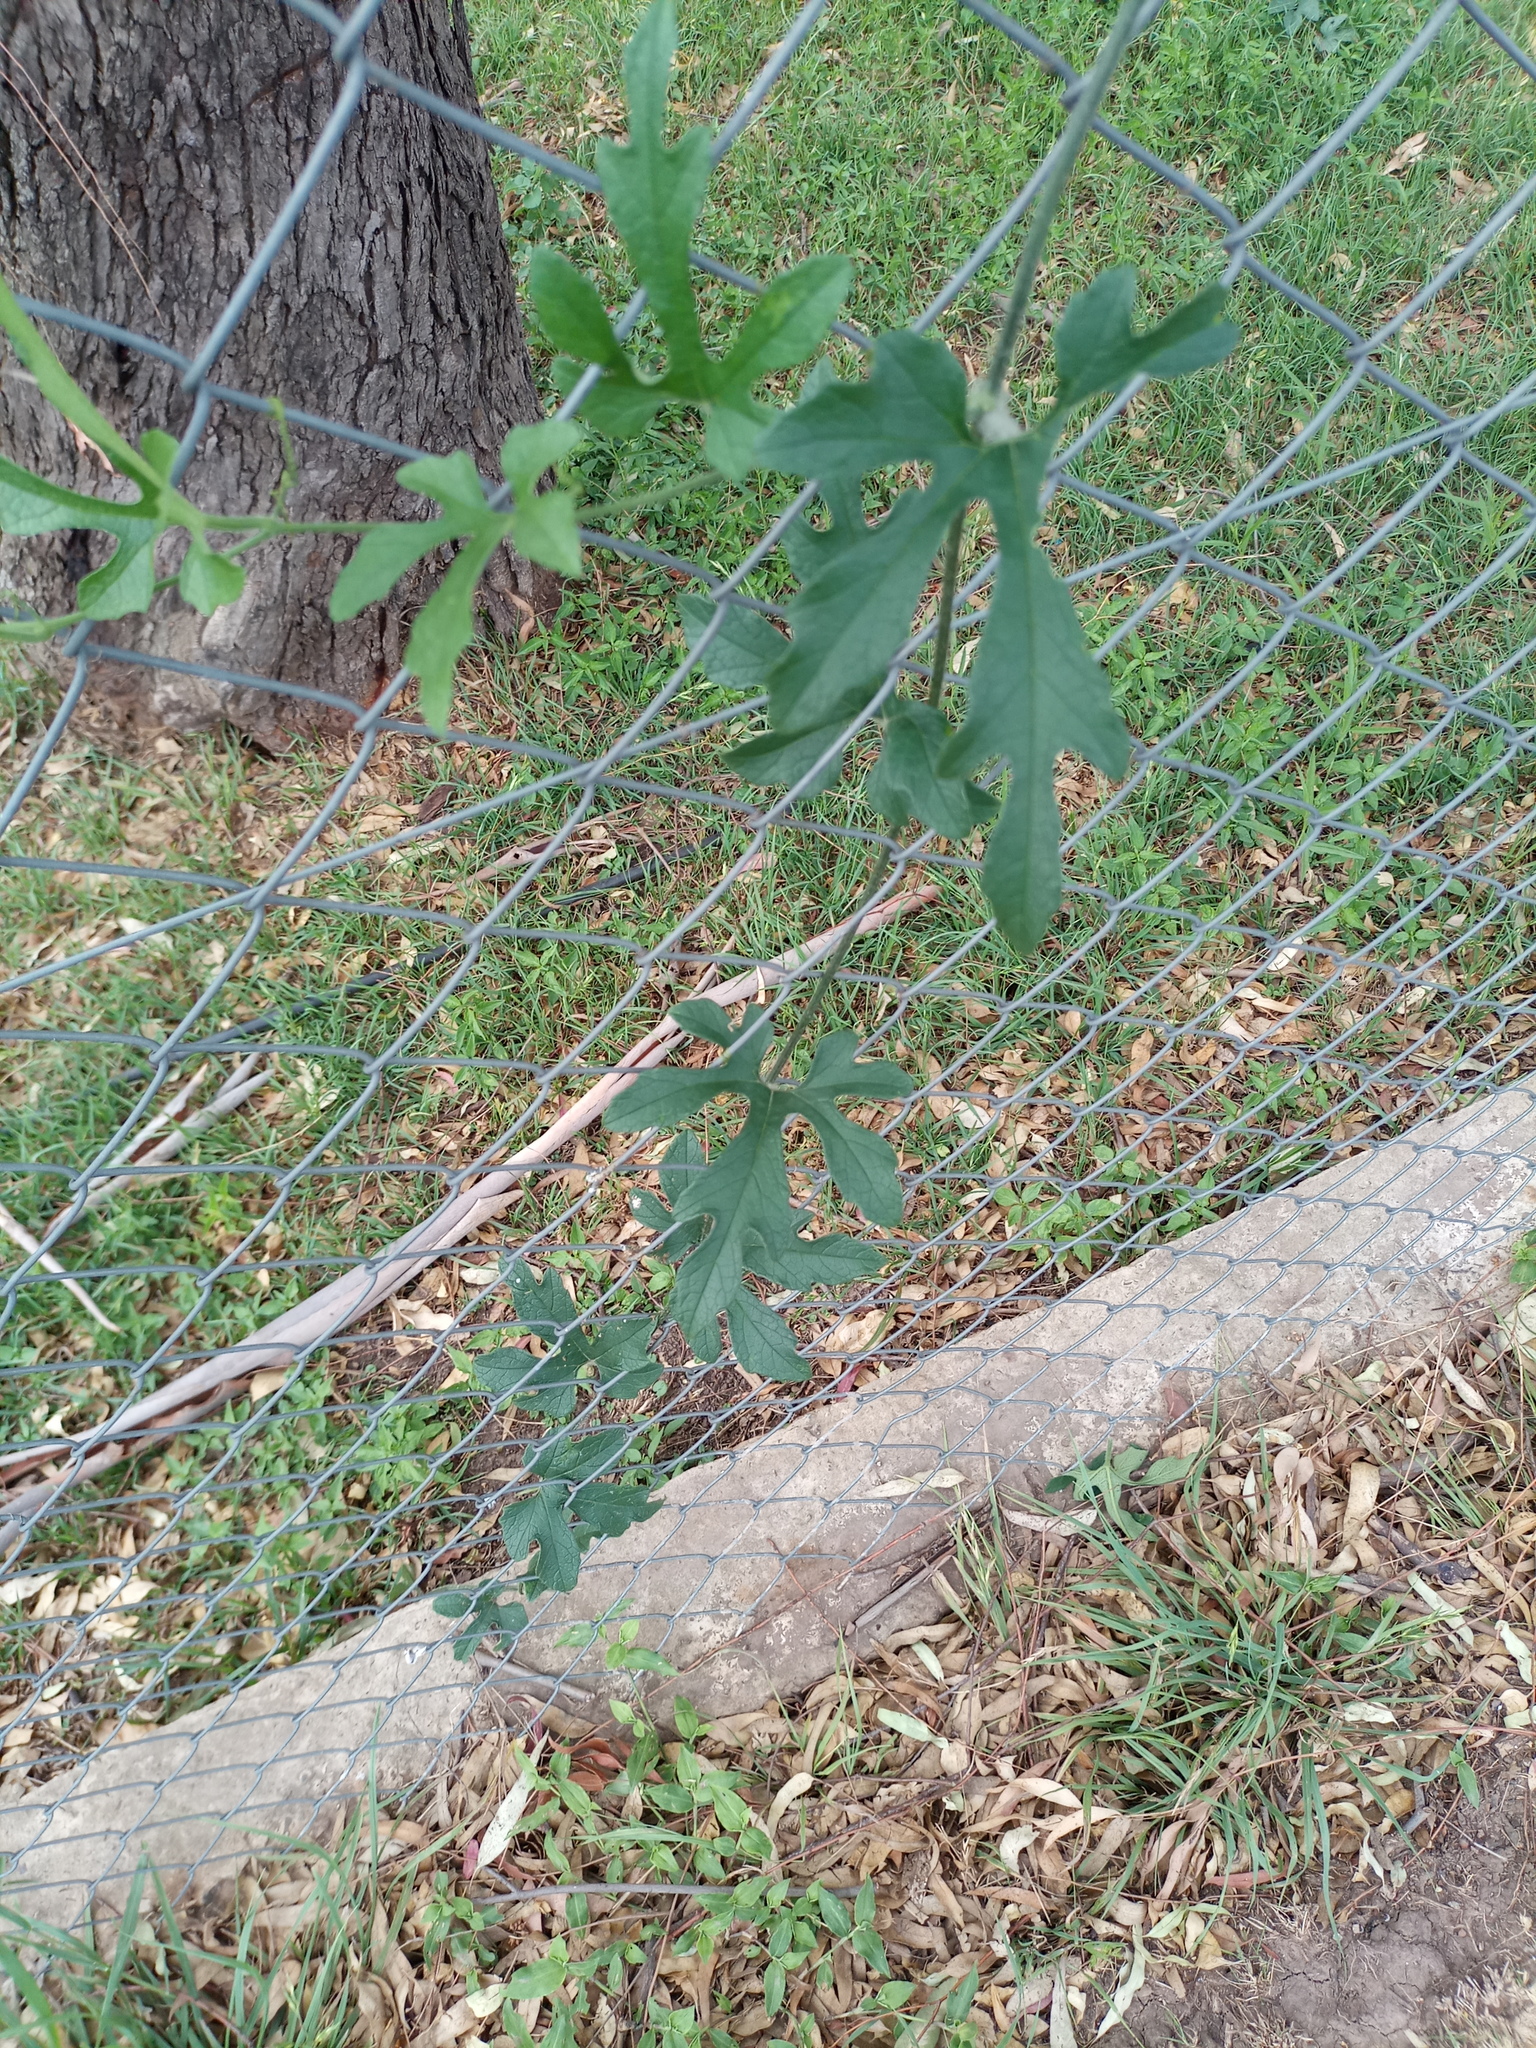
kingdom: Plantae
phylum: Tracheophyta
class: Magnoliopsida
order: Cucurbitales
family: Cucurbitaceae
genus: Cayaponia
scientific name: Cayaponia bonariensis
